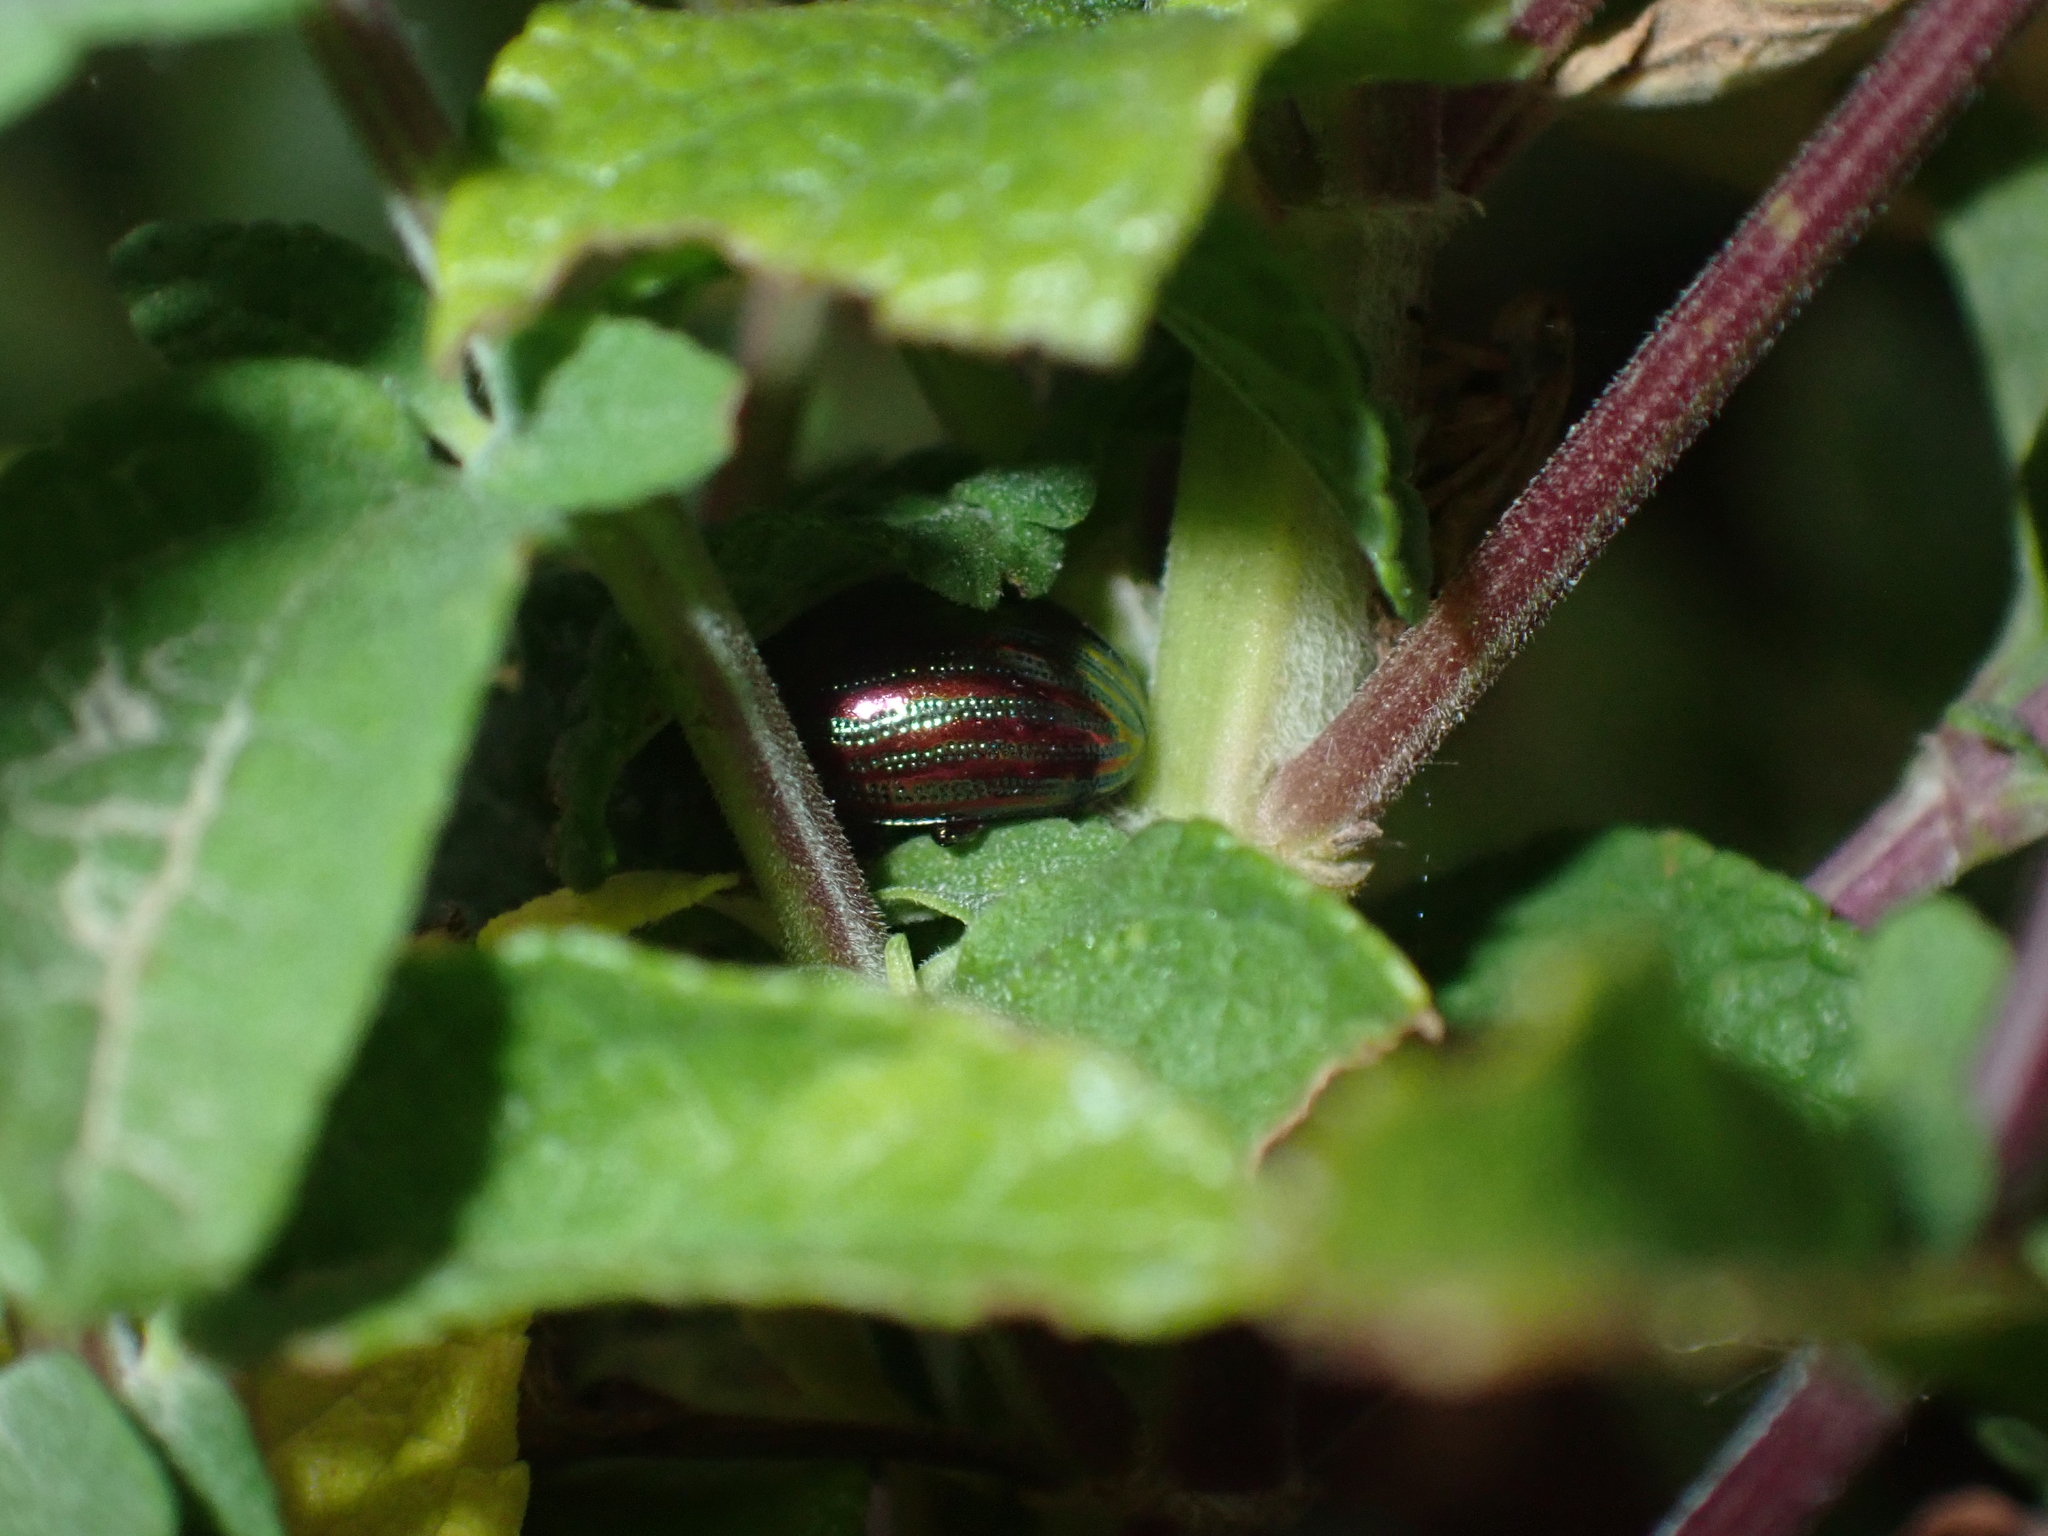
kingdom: Animalia
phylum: Arthropoda
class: Insecta
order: Coleoptera
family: Chrysomelidae
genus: Chrysolina
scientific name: Chrysolina americana
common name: Rosemary beetle
